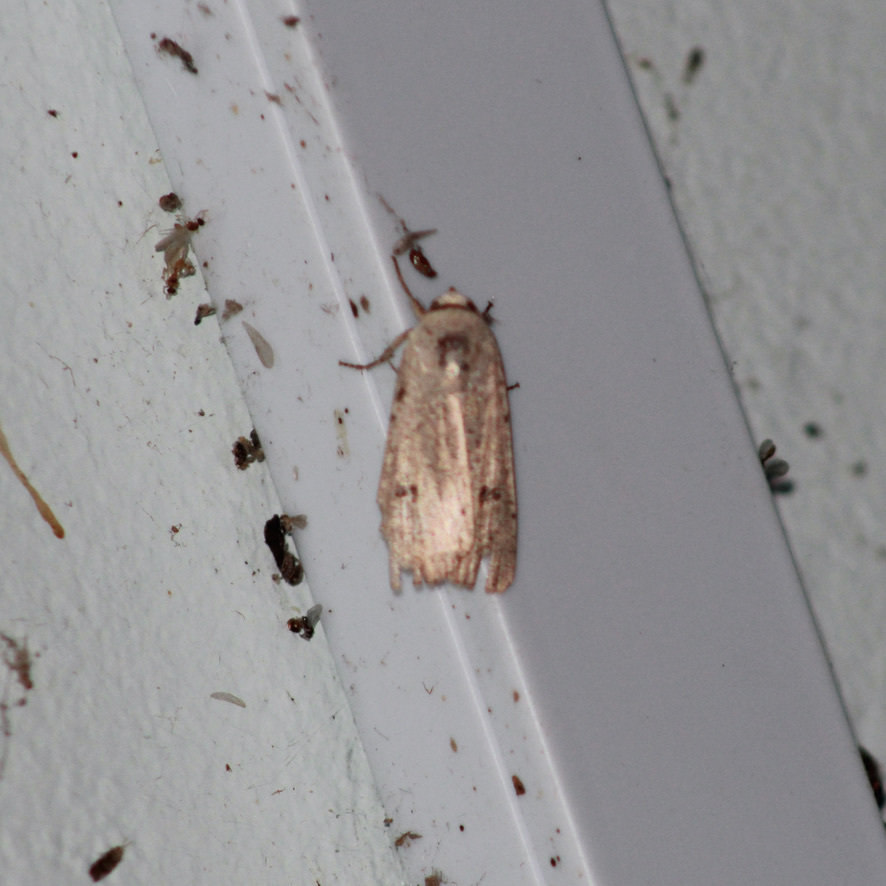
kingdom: Animalia
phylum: Arthropoda
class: Insecta
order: Lepidoptera
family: Noctuidae
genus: Anicla
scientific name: Anicla infecta
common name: Green cutworm
